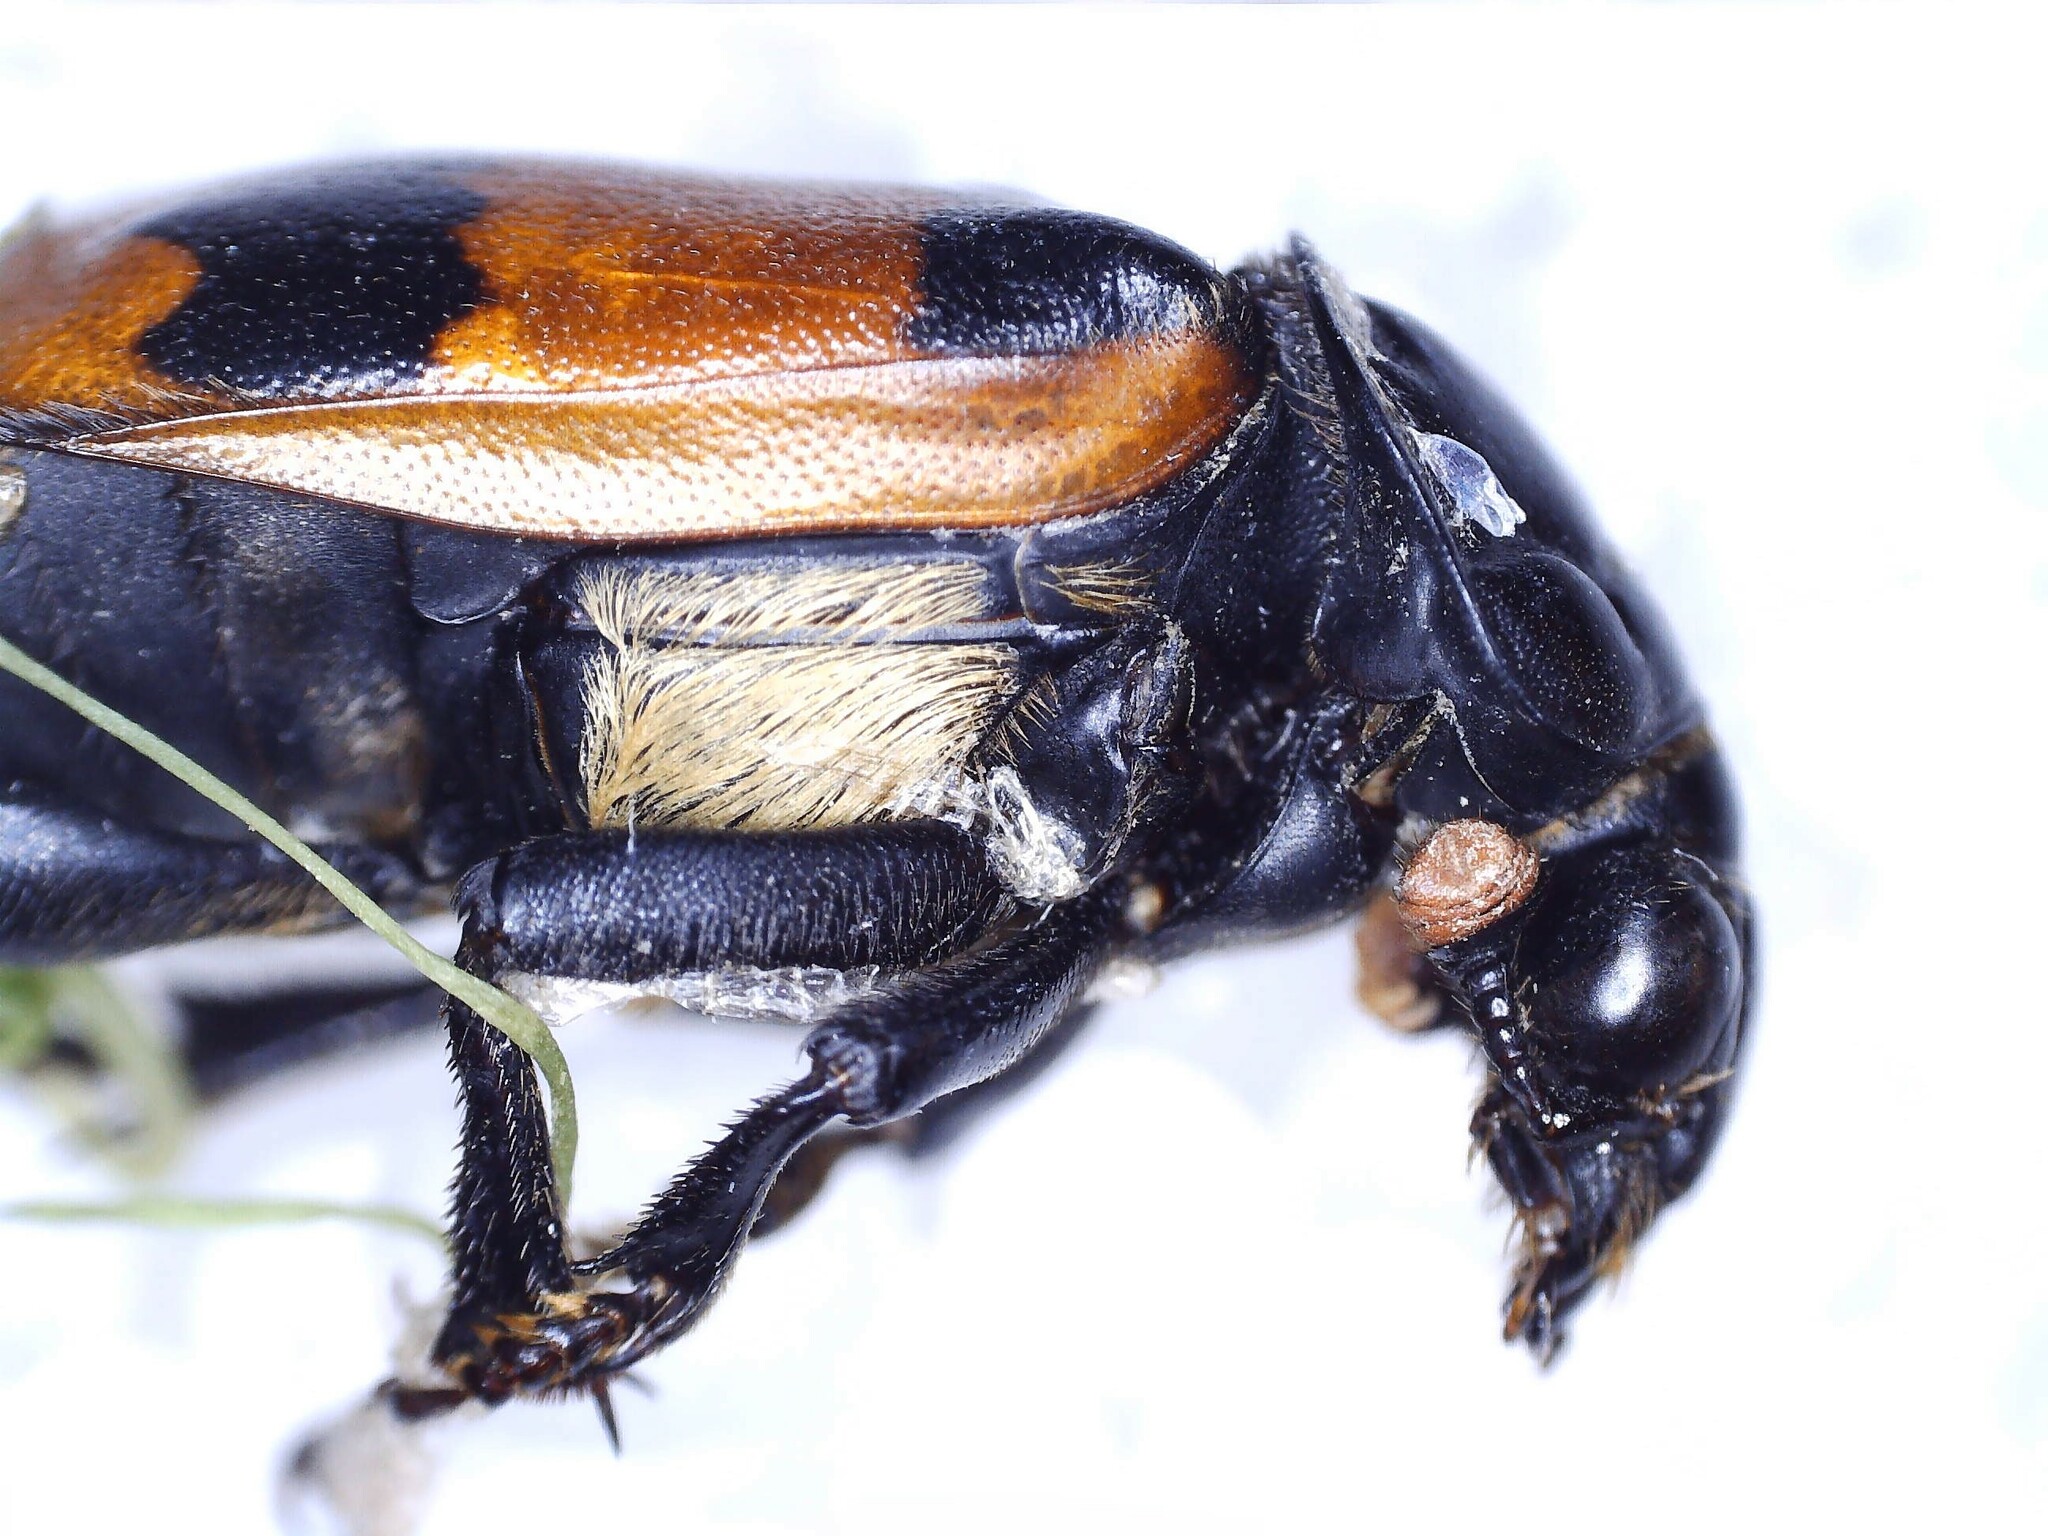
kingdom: Animalia
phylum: Arthropoda
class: Insecta
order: Coleoptera
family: Staphylinidae
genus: Nicrophorus
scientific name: Nicrophorus investigator
